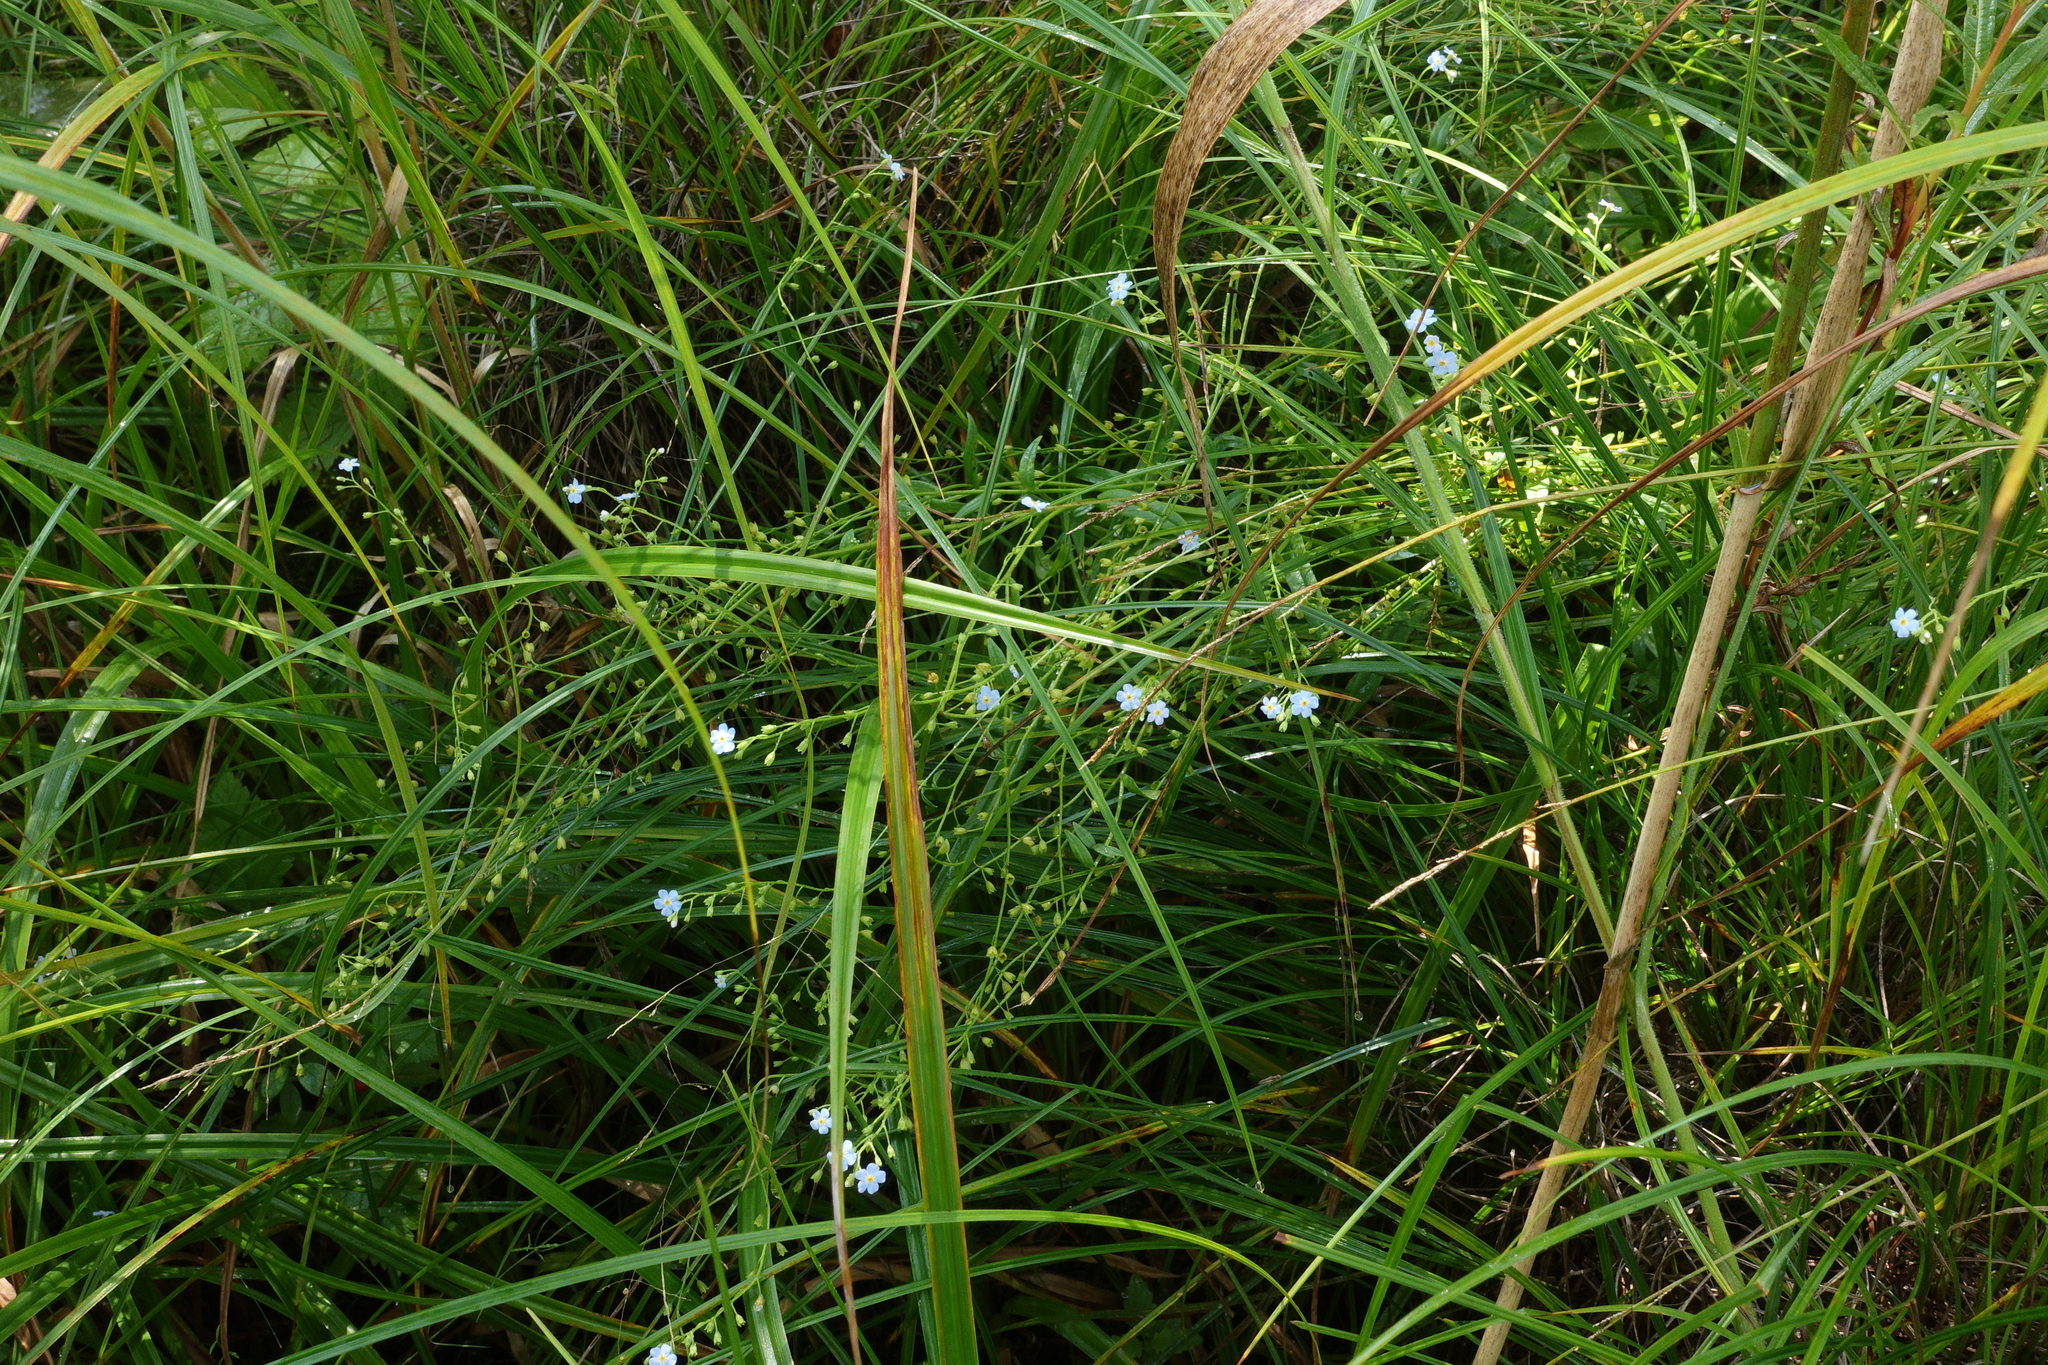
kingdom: Plantae
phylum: Tracheophyta
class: Magnoliopsida
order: Boraginales
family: Boraginaceae
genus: Myosotis
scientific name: Myosotis scorpioides
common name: Water forget-me-not
